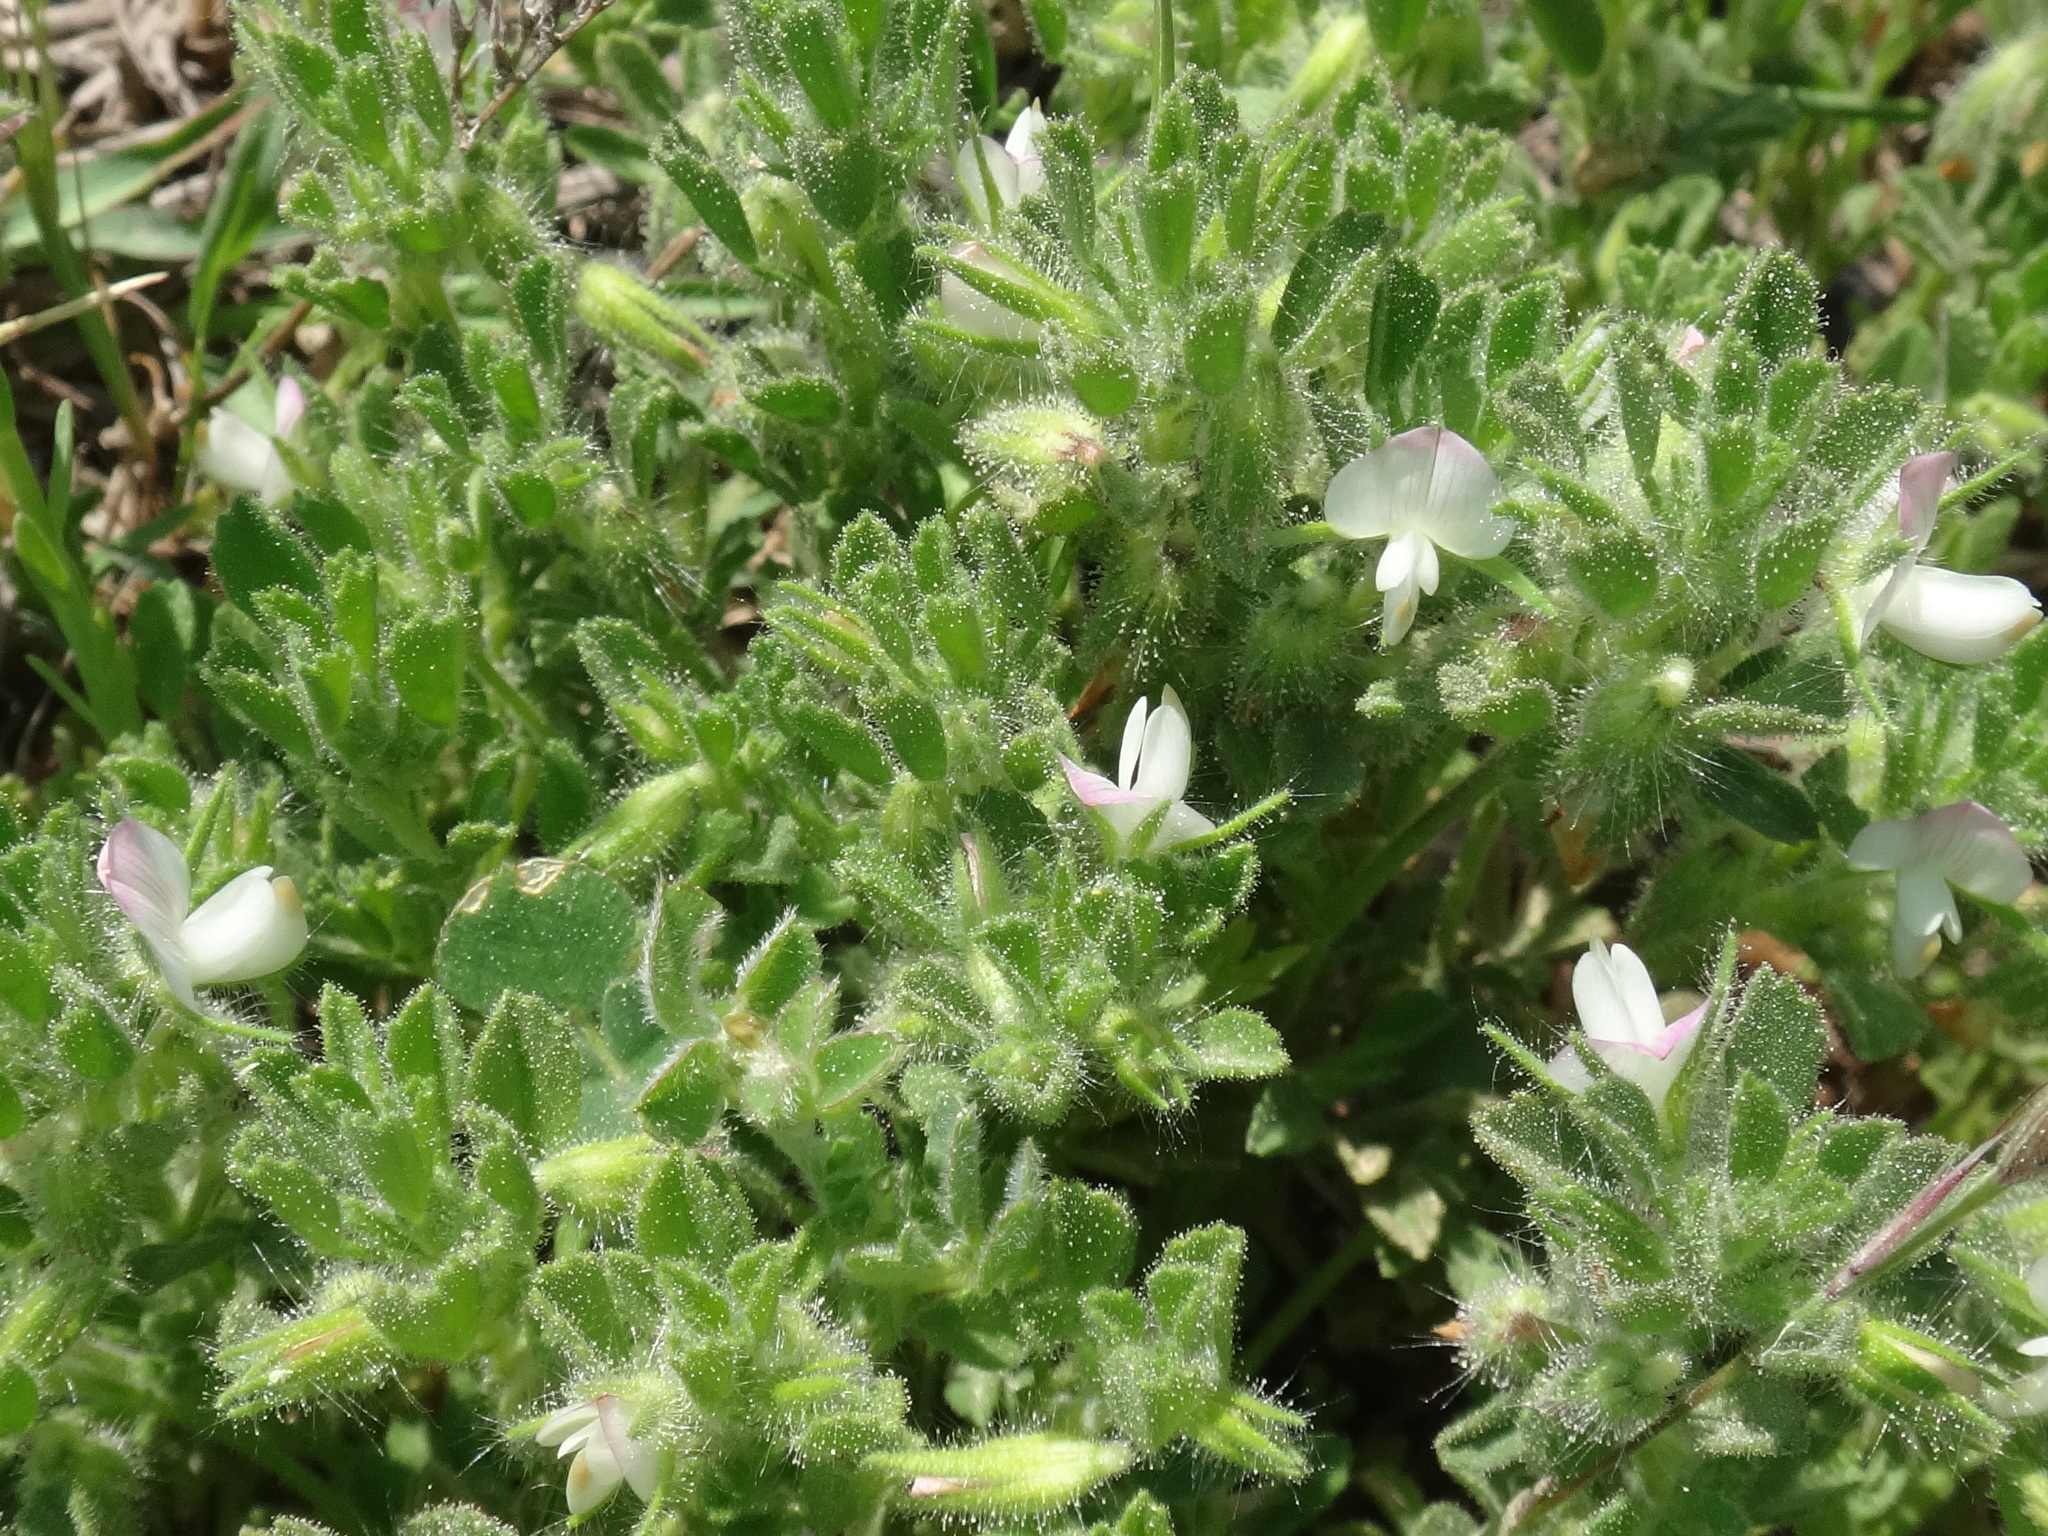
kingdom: Plantae
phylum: Tracheophyta
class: Magnoliopsida
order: Fabales
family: Fabaceae
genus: Ononis
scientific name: Ononis reclinata
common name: Small restharrow
